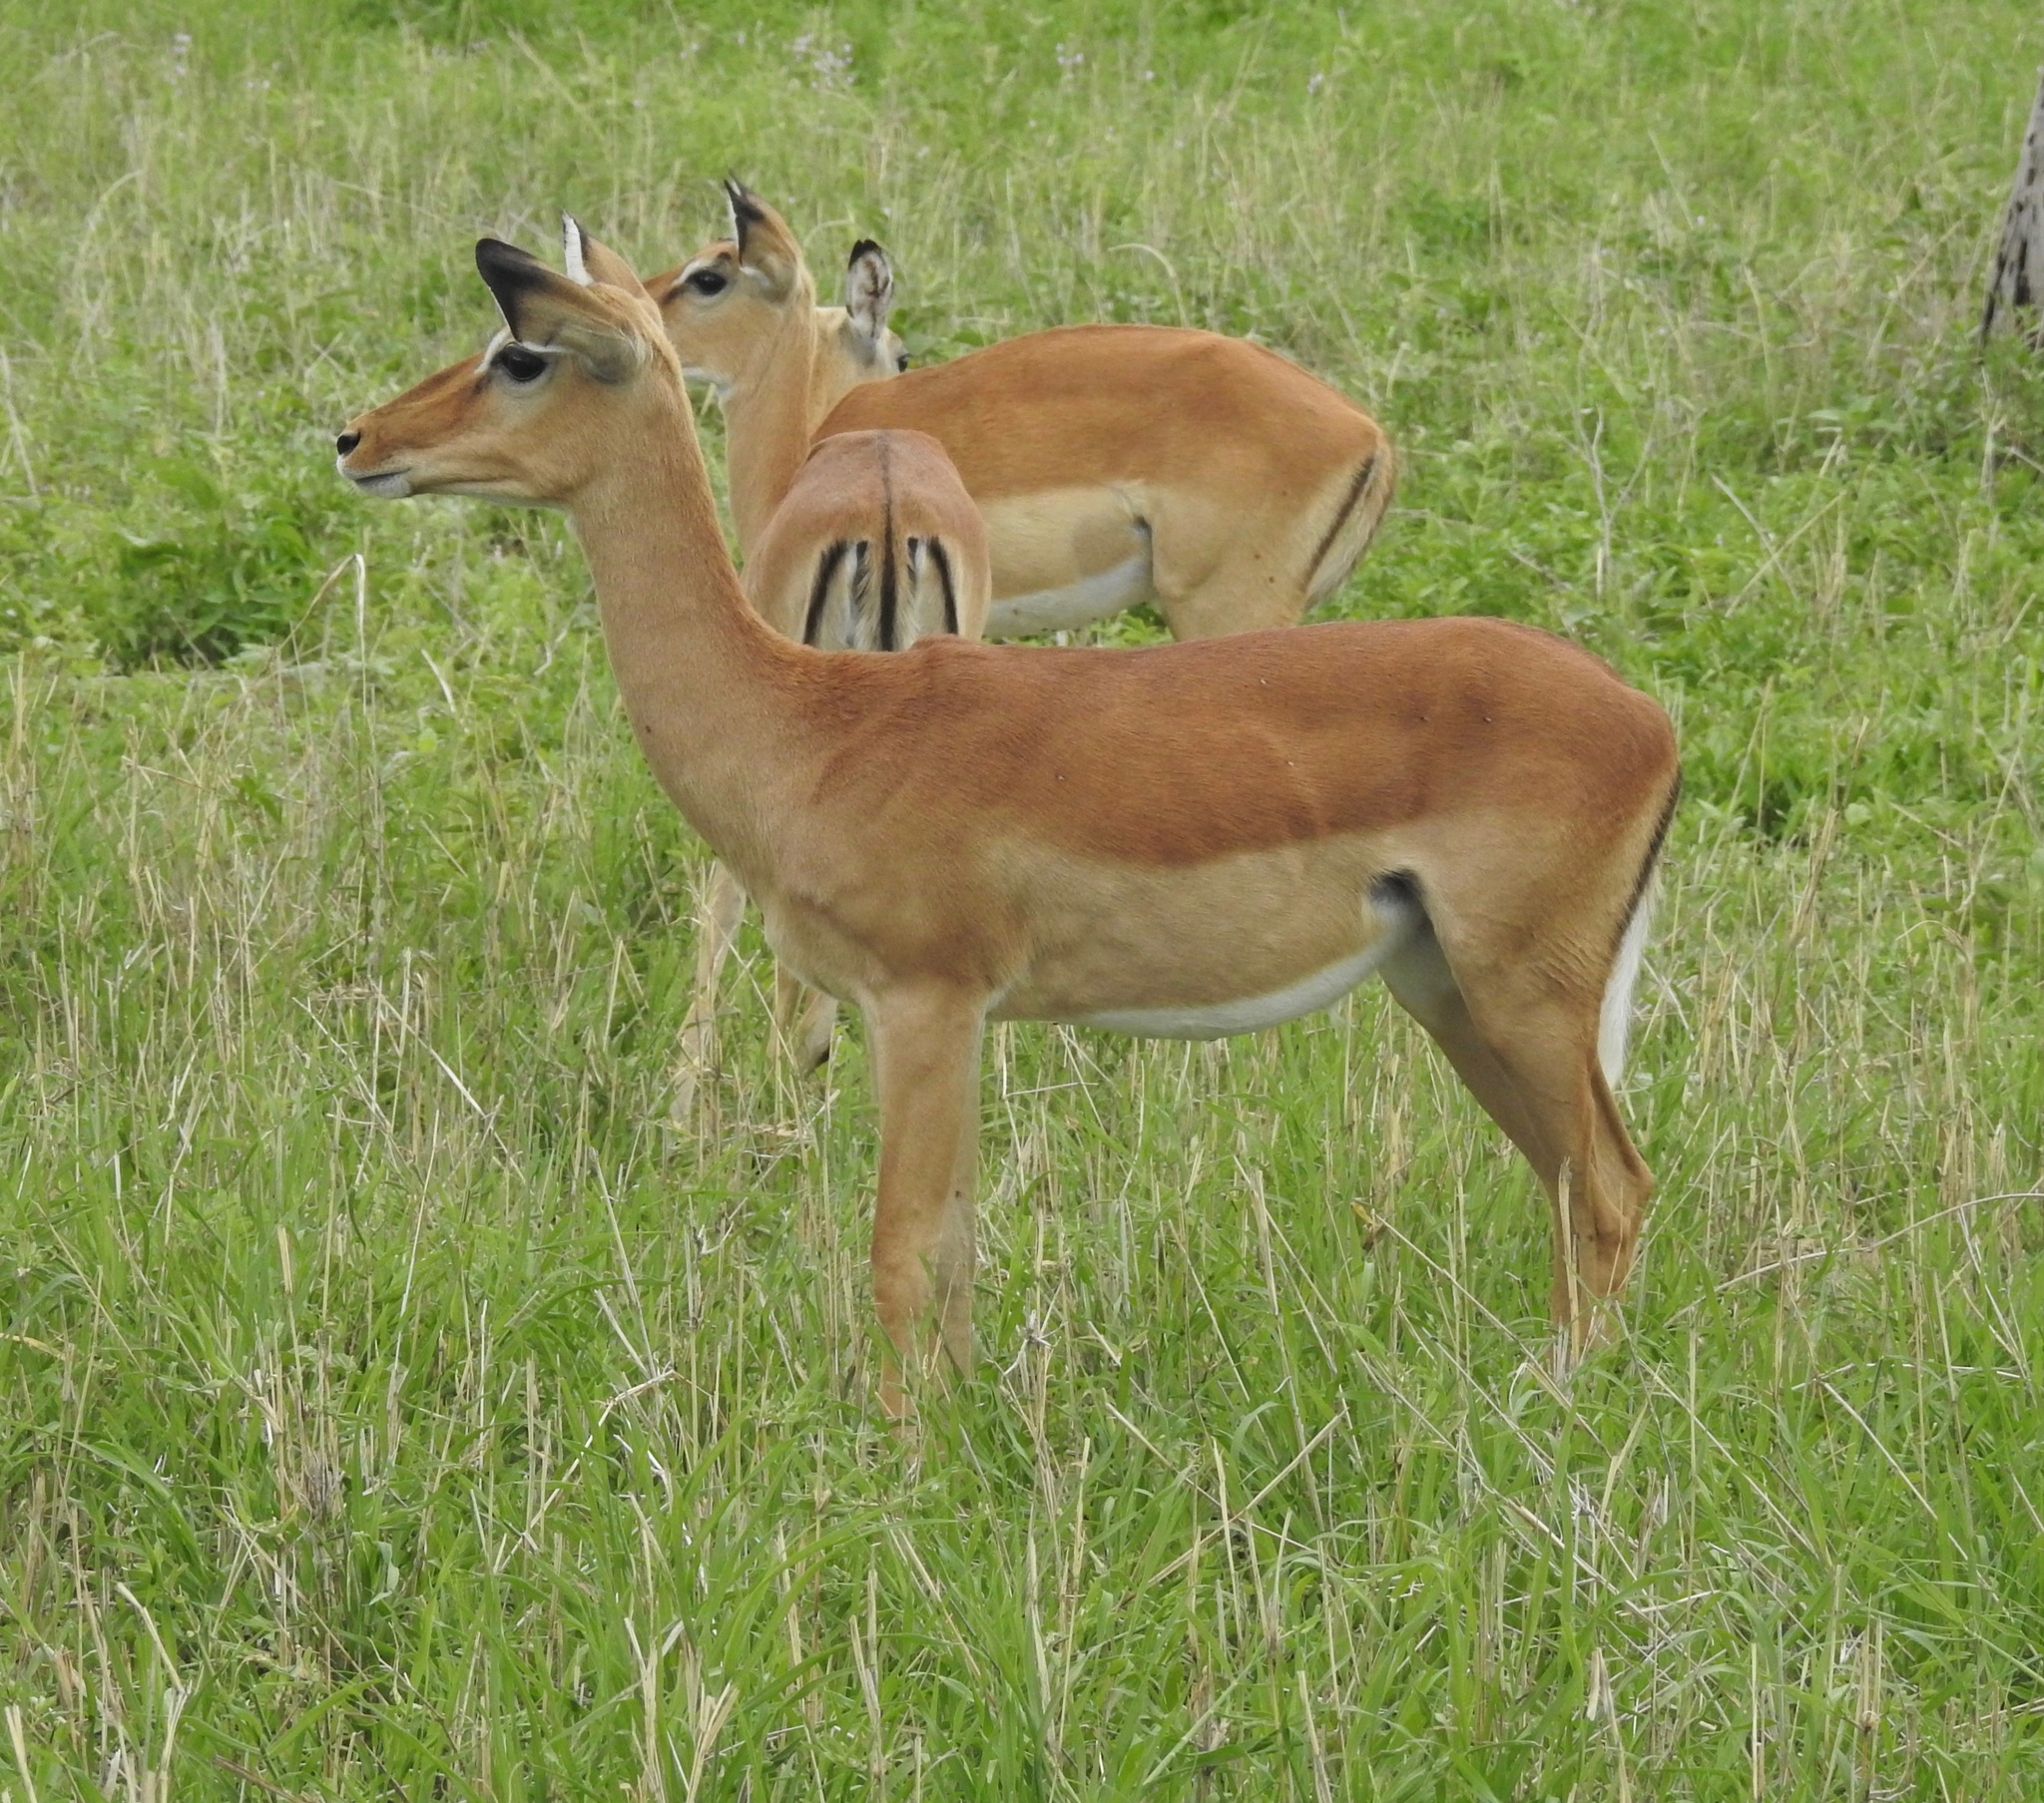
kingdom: Animalia
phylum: Chordata
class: Mammalia
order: Artiodactyla
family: Bovidae
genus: Aepyceros
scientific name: Aepyceros melampus
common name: Impala
